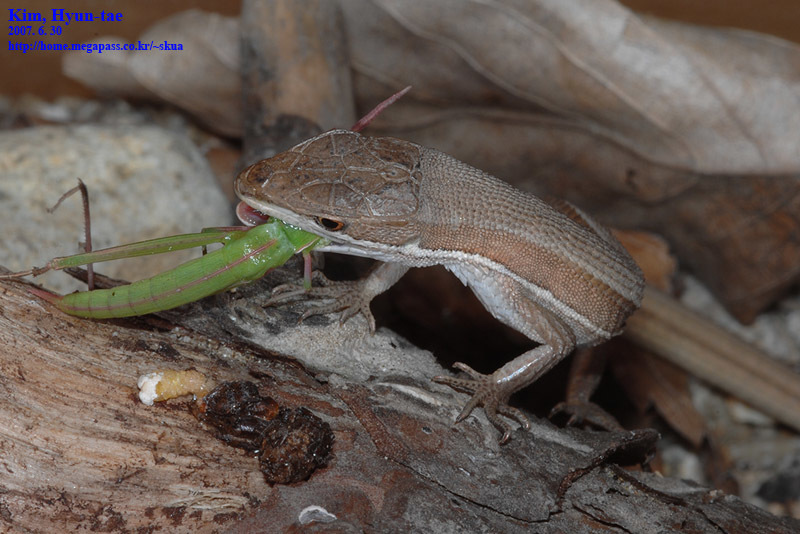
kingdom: Animalia
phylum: Chordata
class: Squamata
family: Lacertidae
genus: Takydromus
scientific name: Takydromus wolteri
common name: Mountain grass lizard
